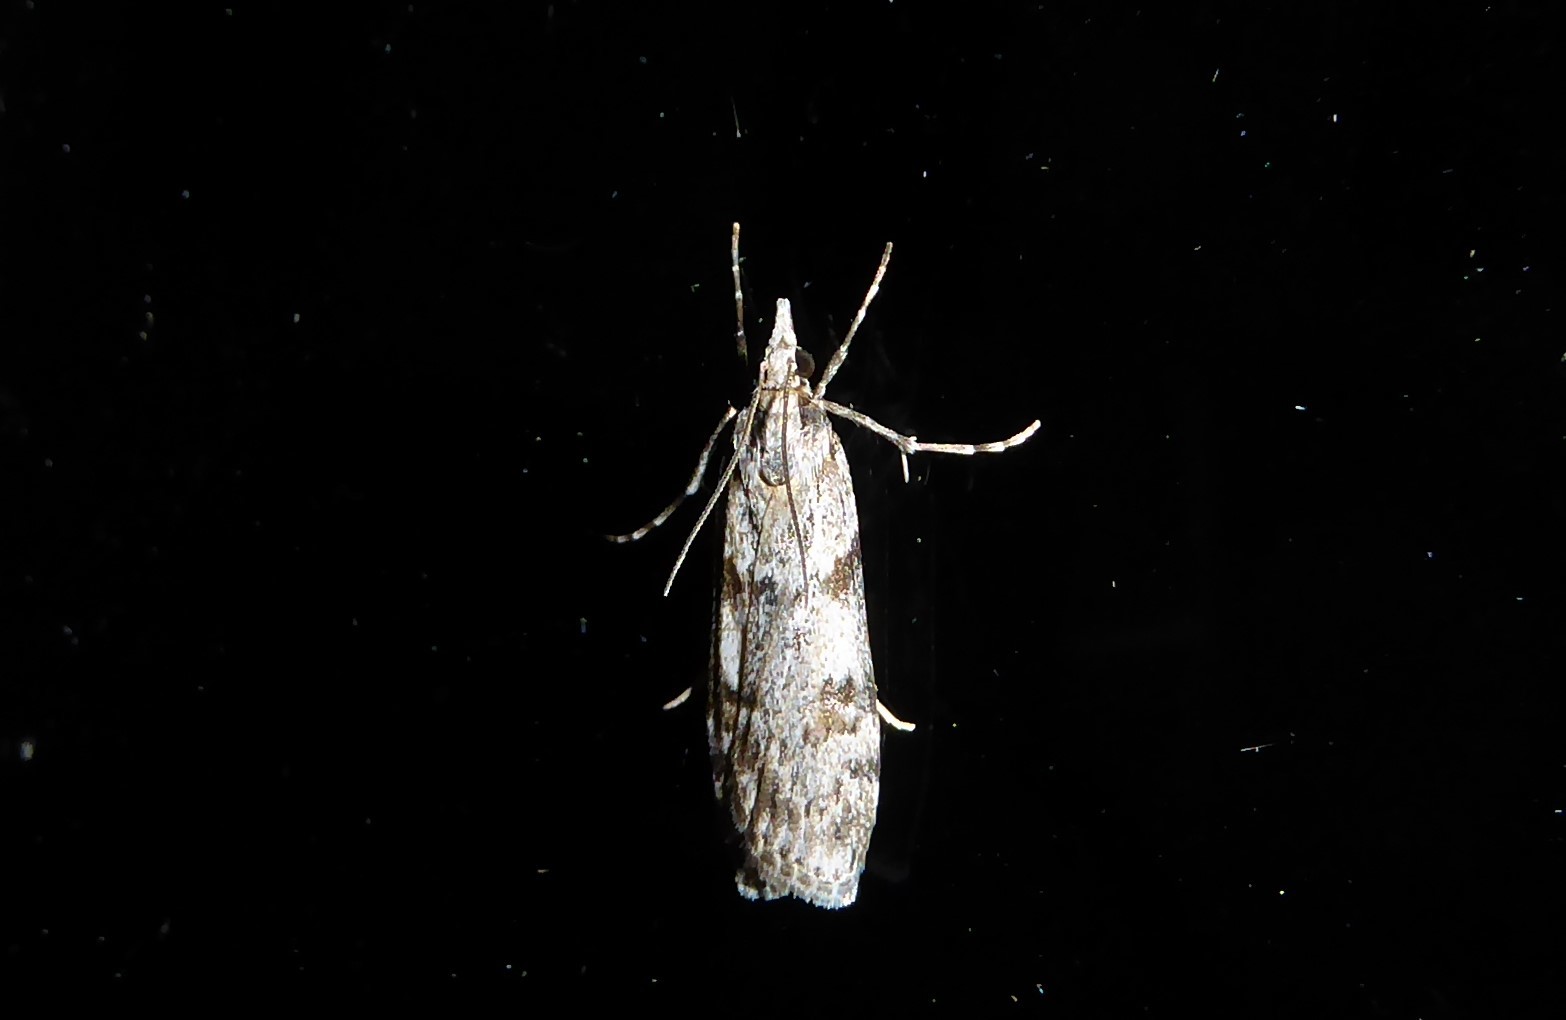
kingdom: Animalia
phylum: Arthropoda
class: Insecta
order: Lepidoptera
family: Crambidae
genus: Scoparia
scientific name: Scoparia halopis
